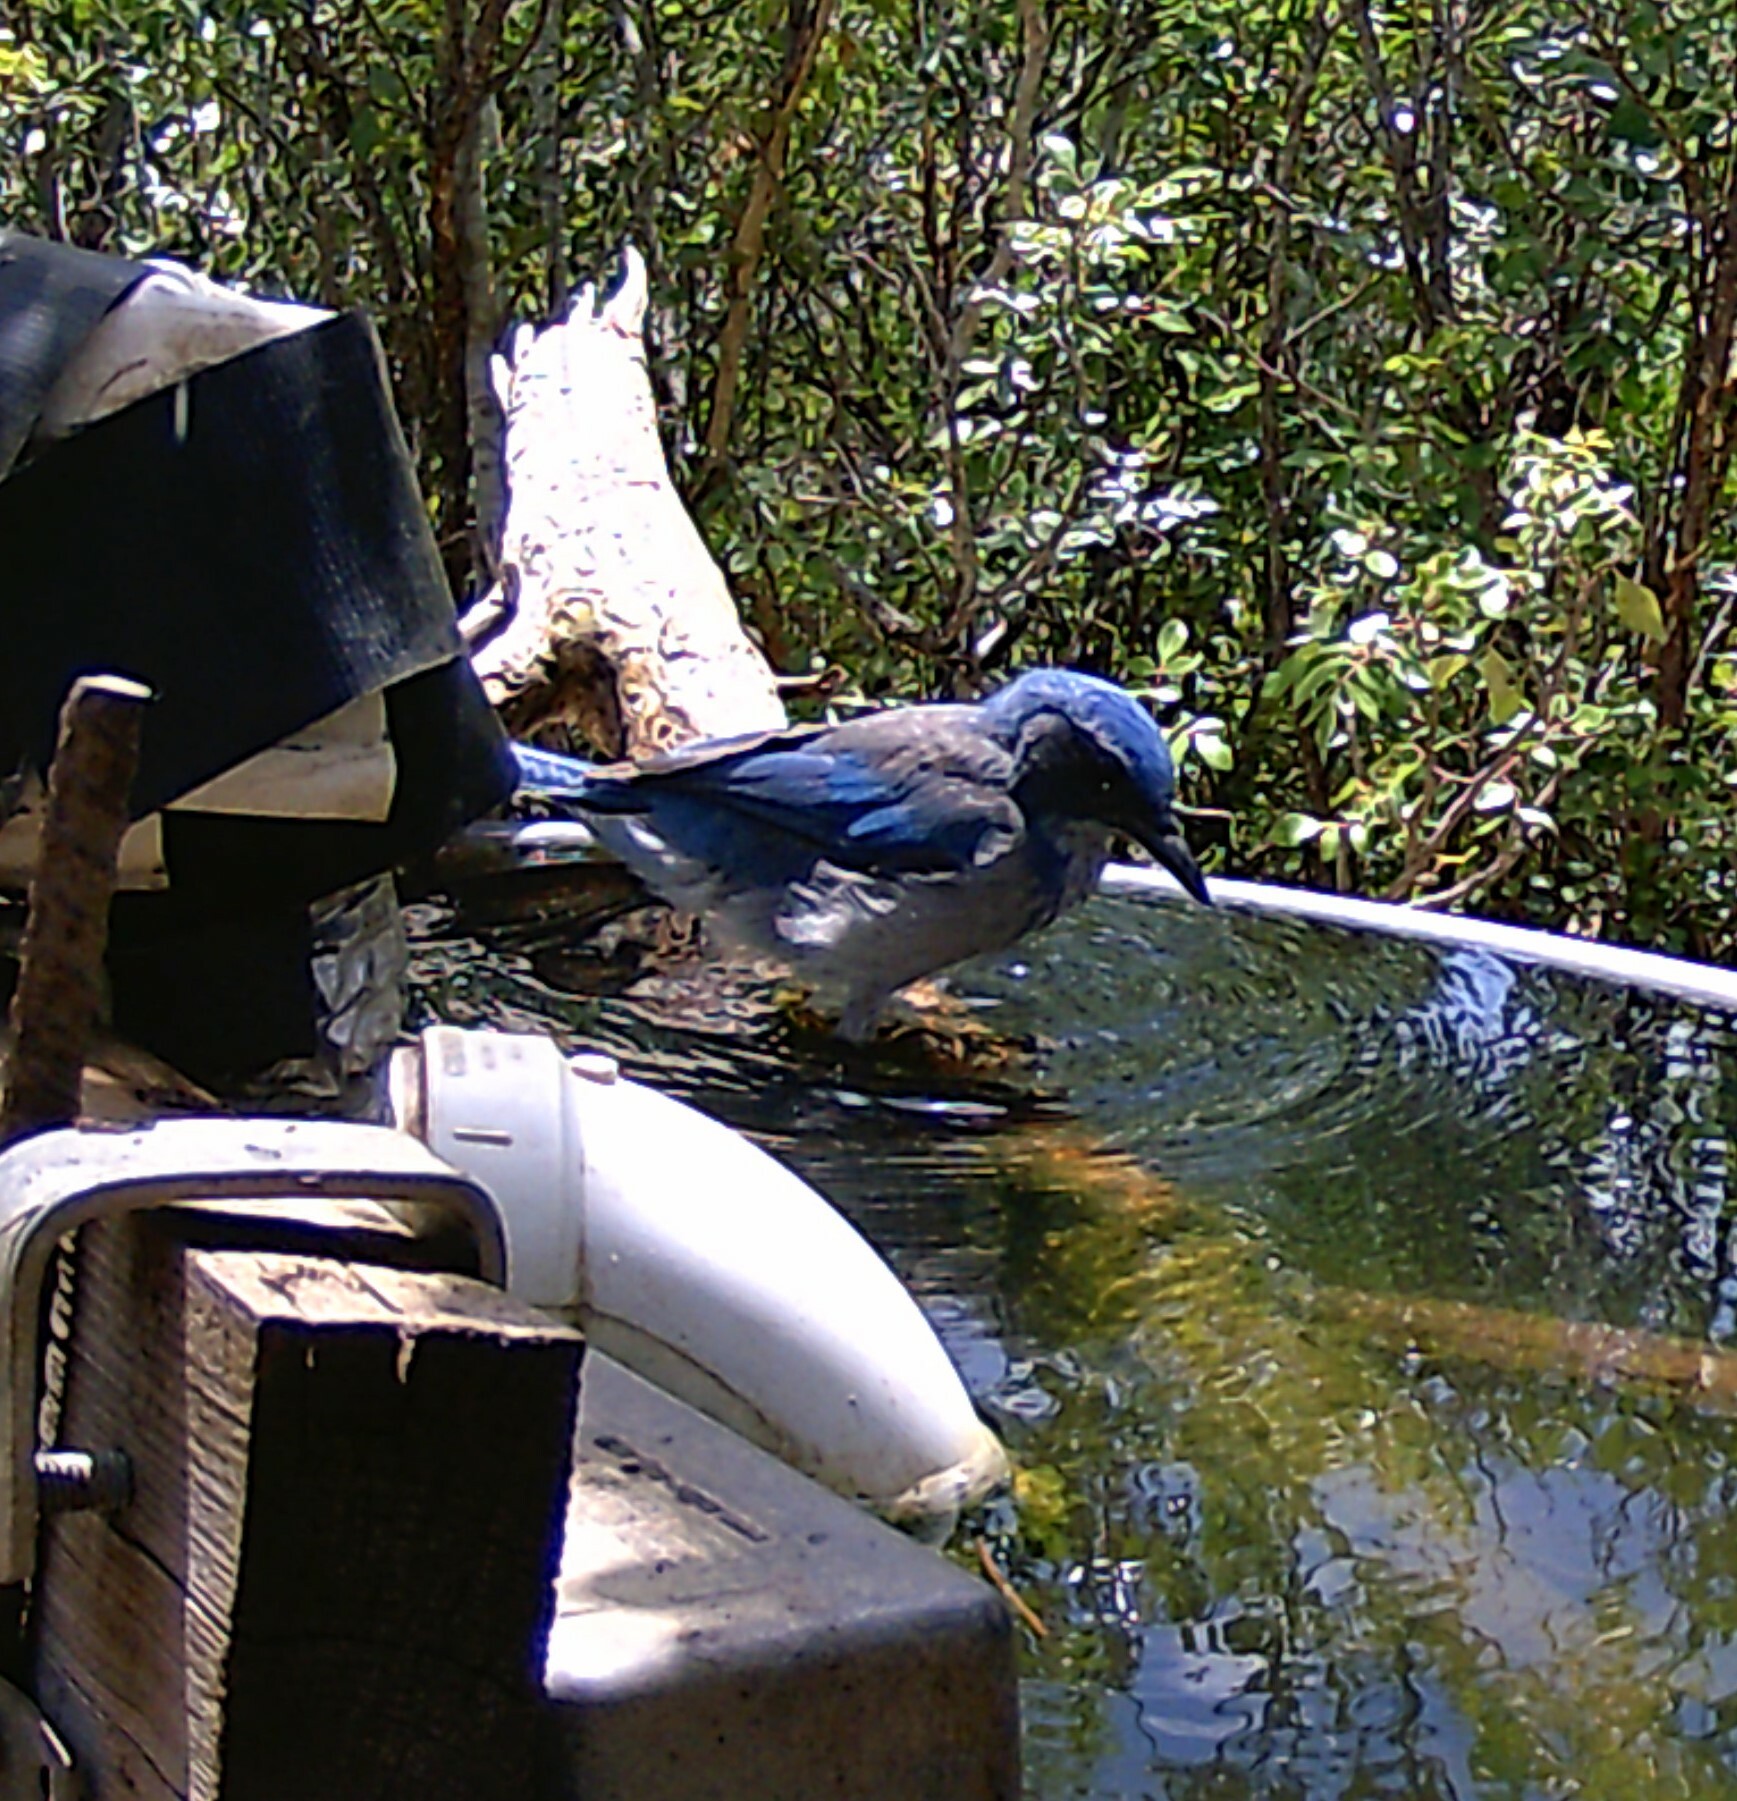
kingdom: Animalia
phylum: Chordata
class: Aves
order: Passeriformes
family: Corvidae
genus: Aphelocoma
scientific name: Aphelocoma woodhouseii
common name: Woodhouse's scrub-jay
